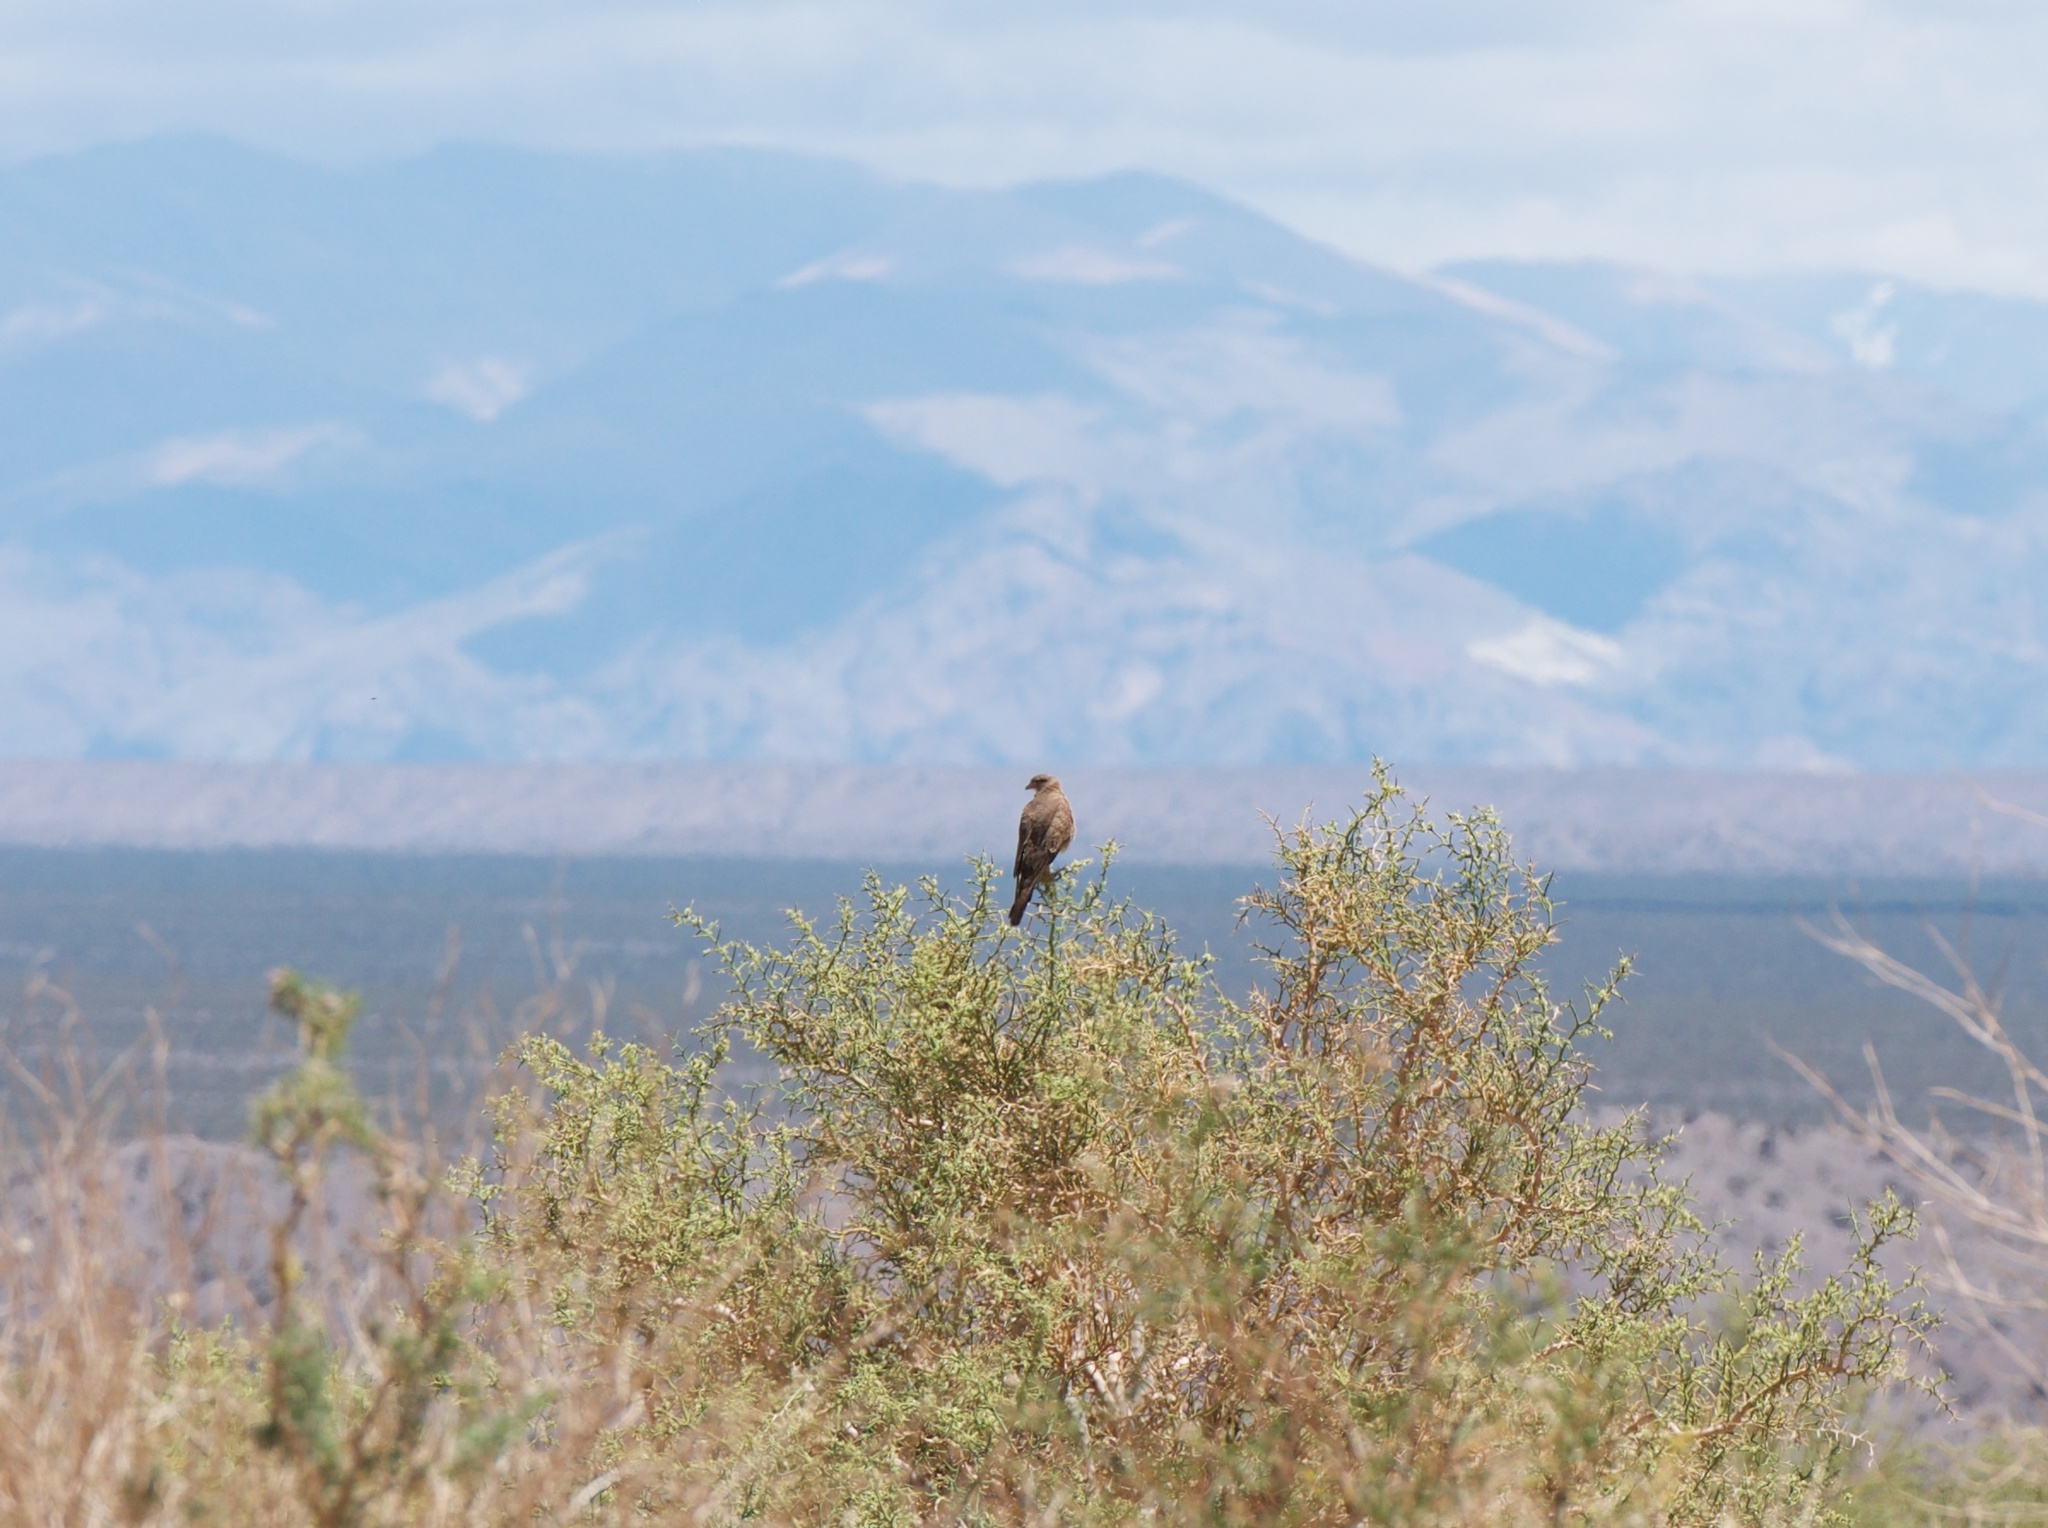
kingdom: Animalia
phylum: Chordata
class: Aves
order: Falconiformes
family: Falconidae
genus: Daptrius
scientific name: Daptrius
